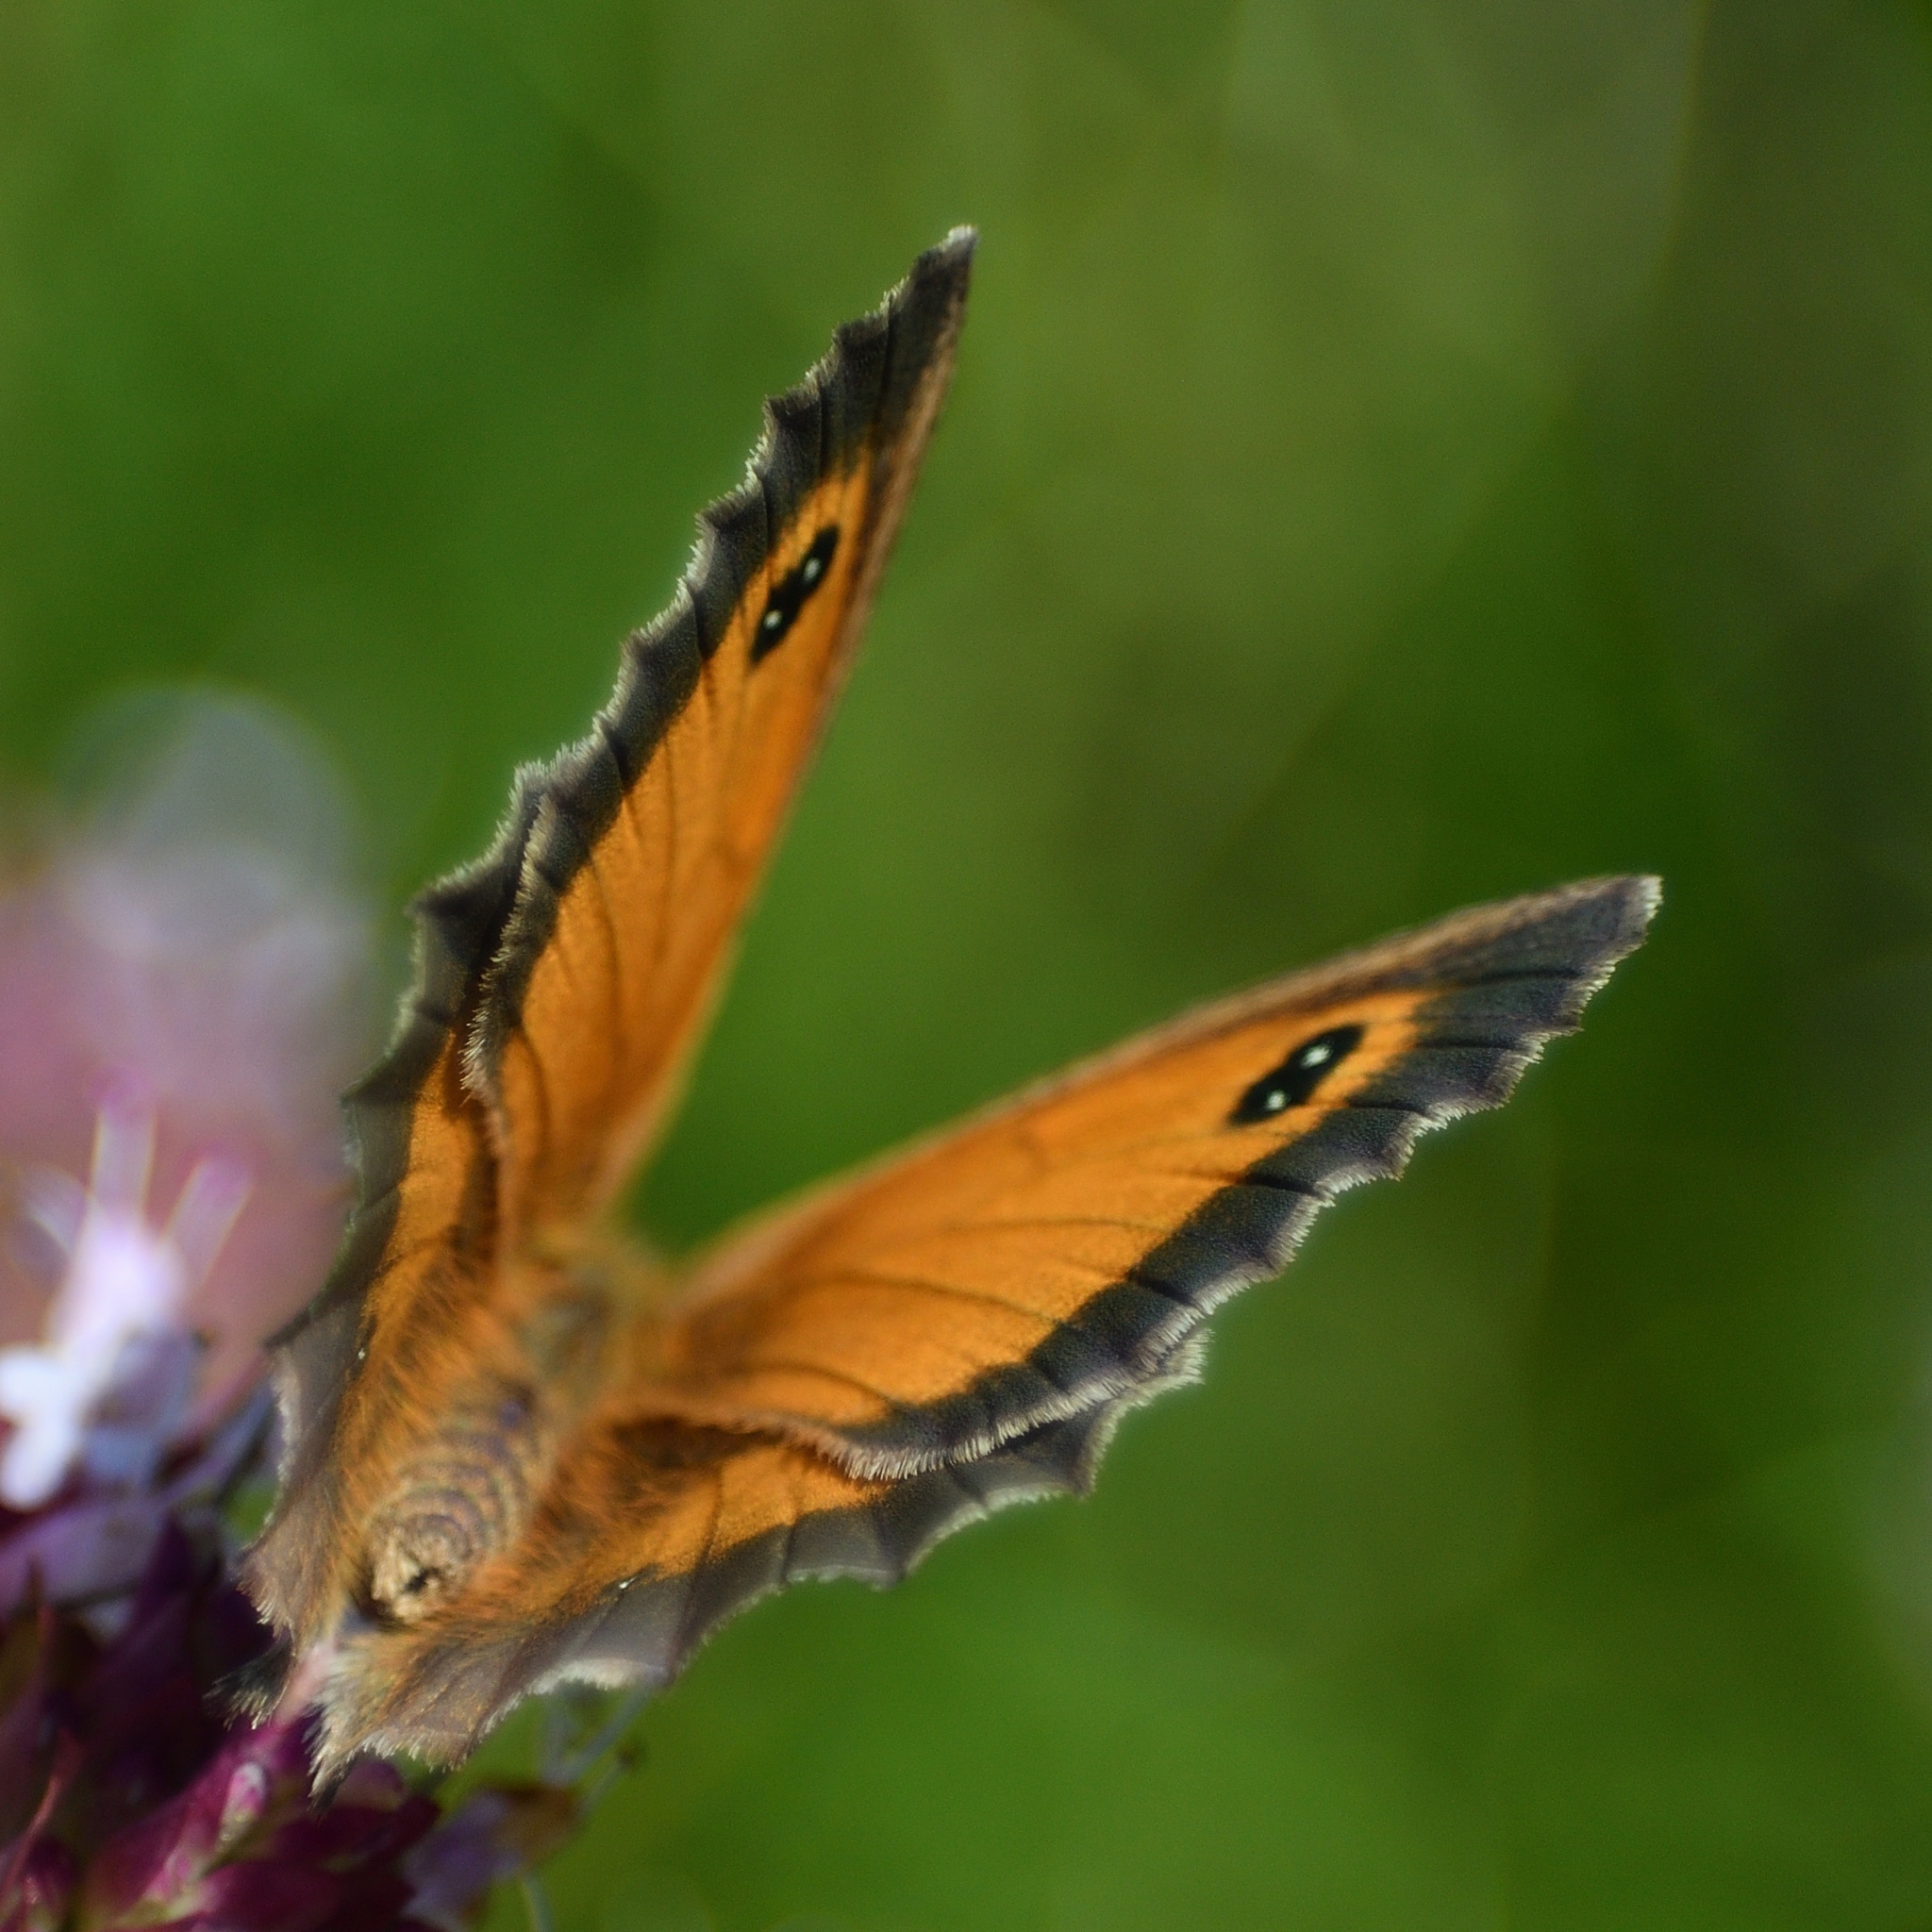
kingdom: Animalia
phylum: Arthropoda
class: Insecta
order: Lepidoptera
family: Nymphalidae
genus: Pyronia
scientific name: Pyronia tithonus
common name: Gatekeeper
